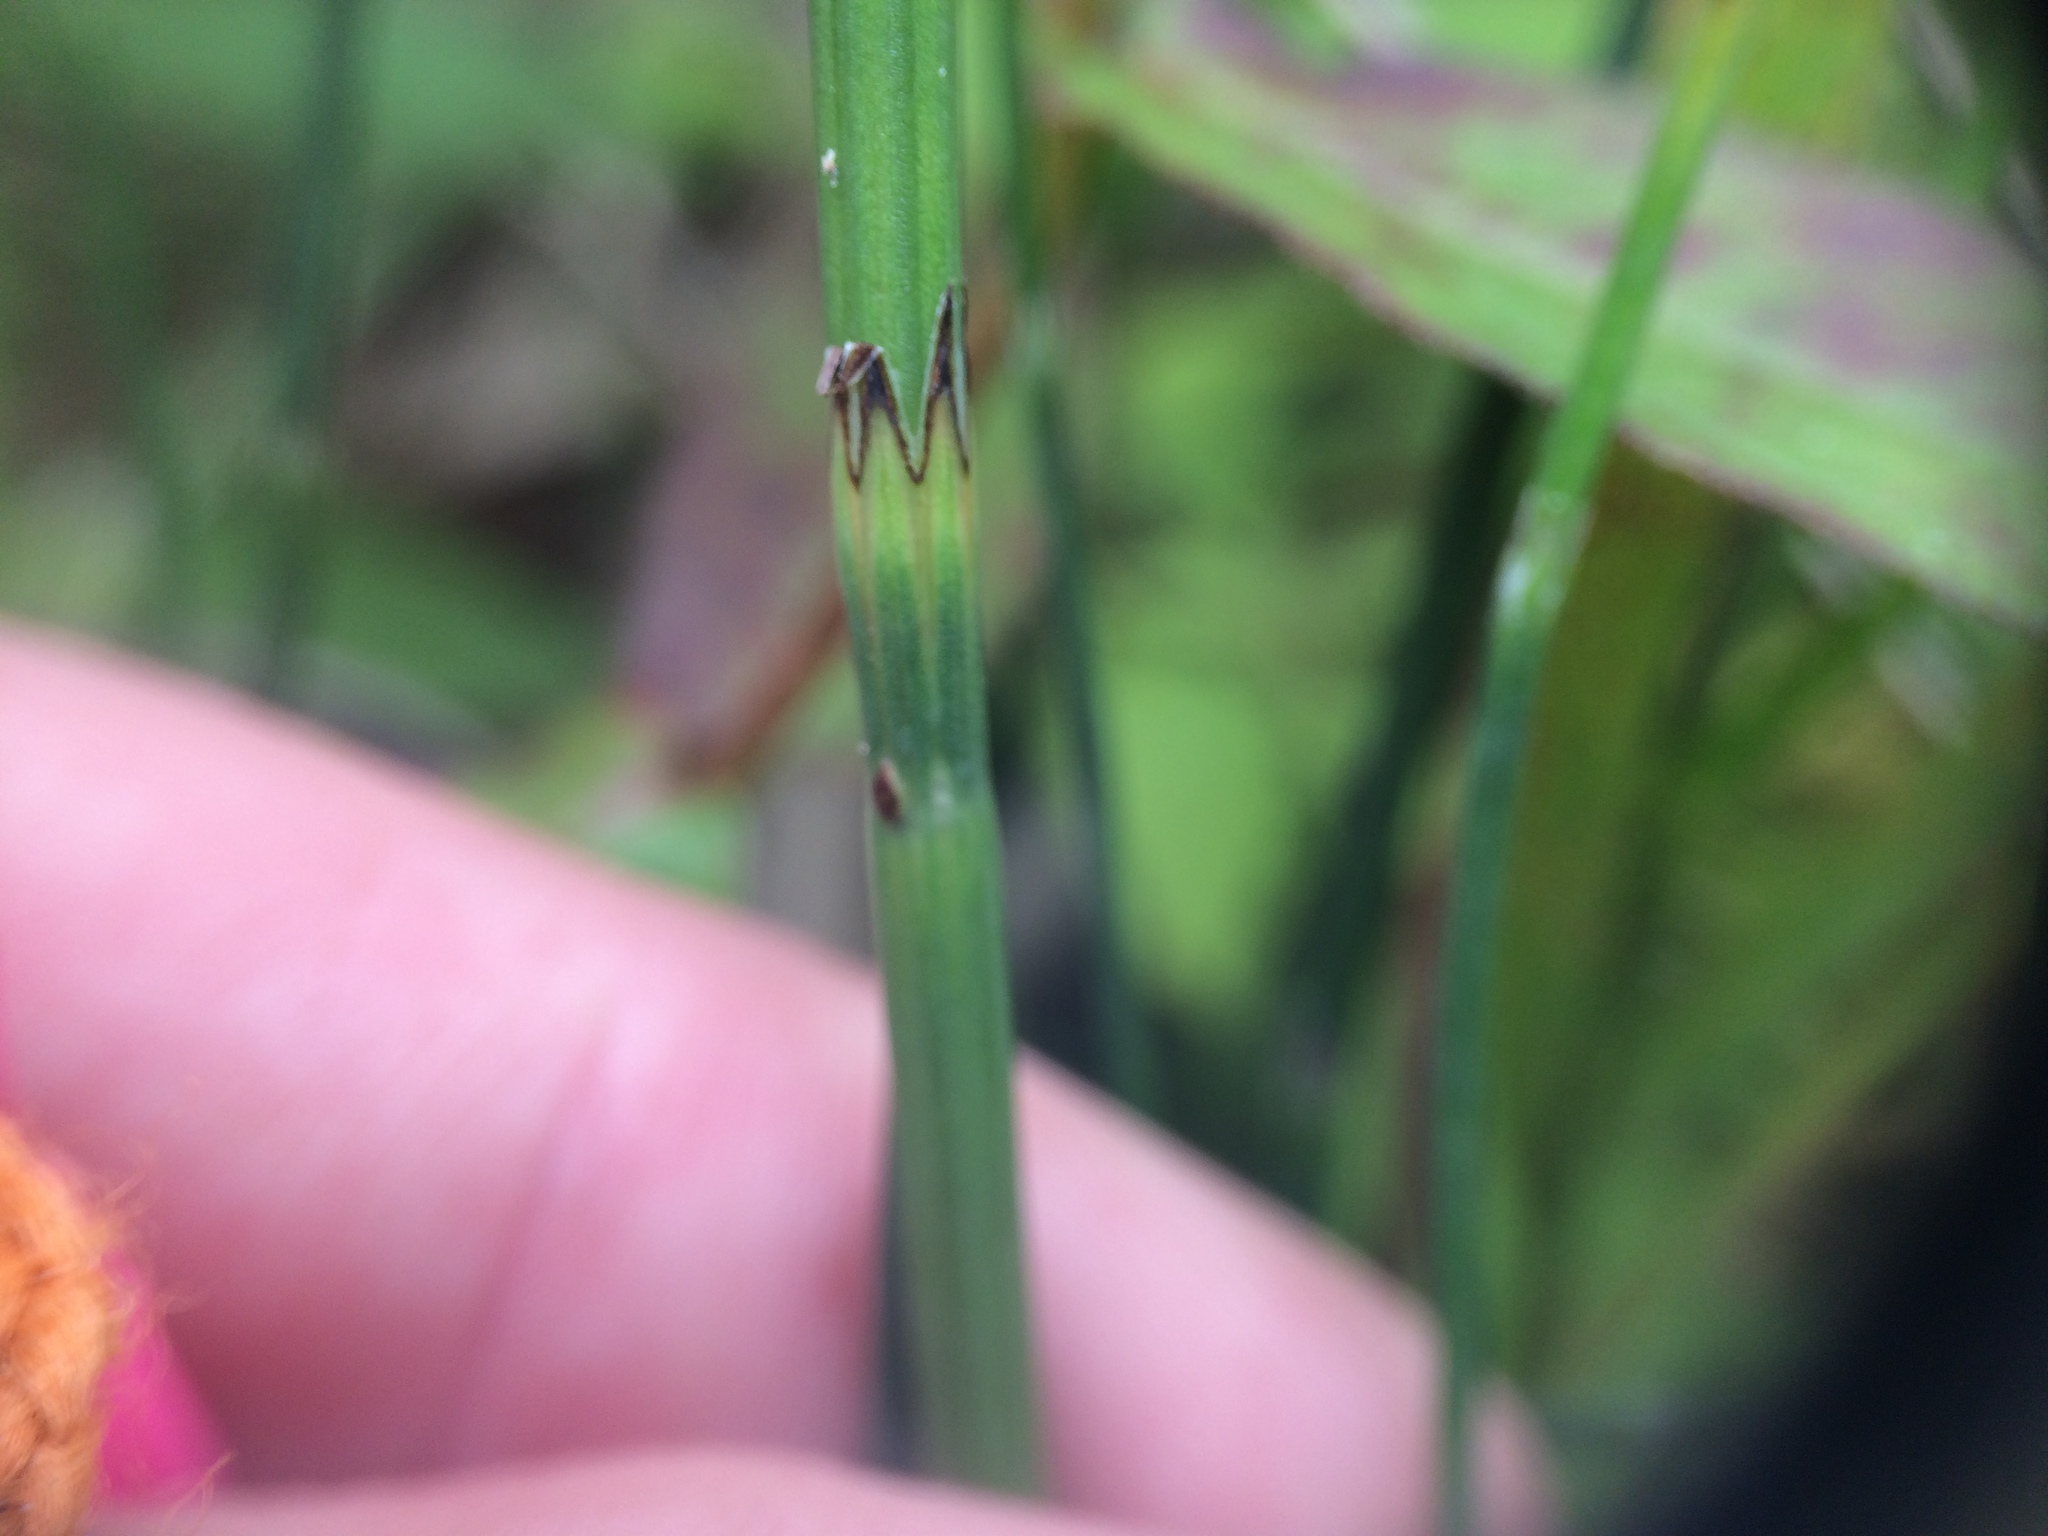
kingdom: Plantae
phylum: Tracheophyta
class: Polypodiopsida
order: Equisetales
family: Equisetaceae
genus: Equisetum
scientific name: Equisetum palustre
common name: Marsh horsetail
